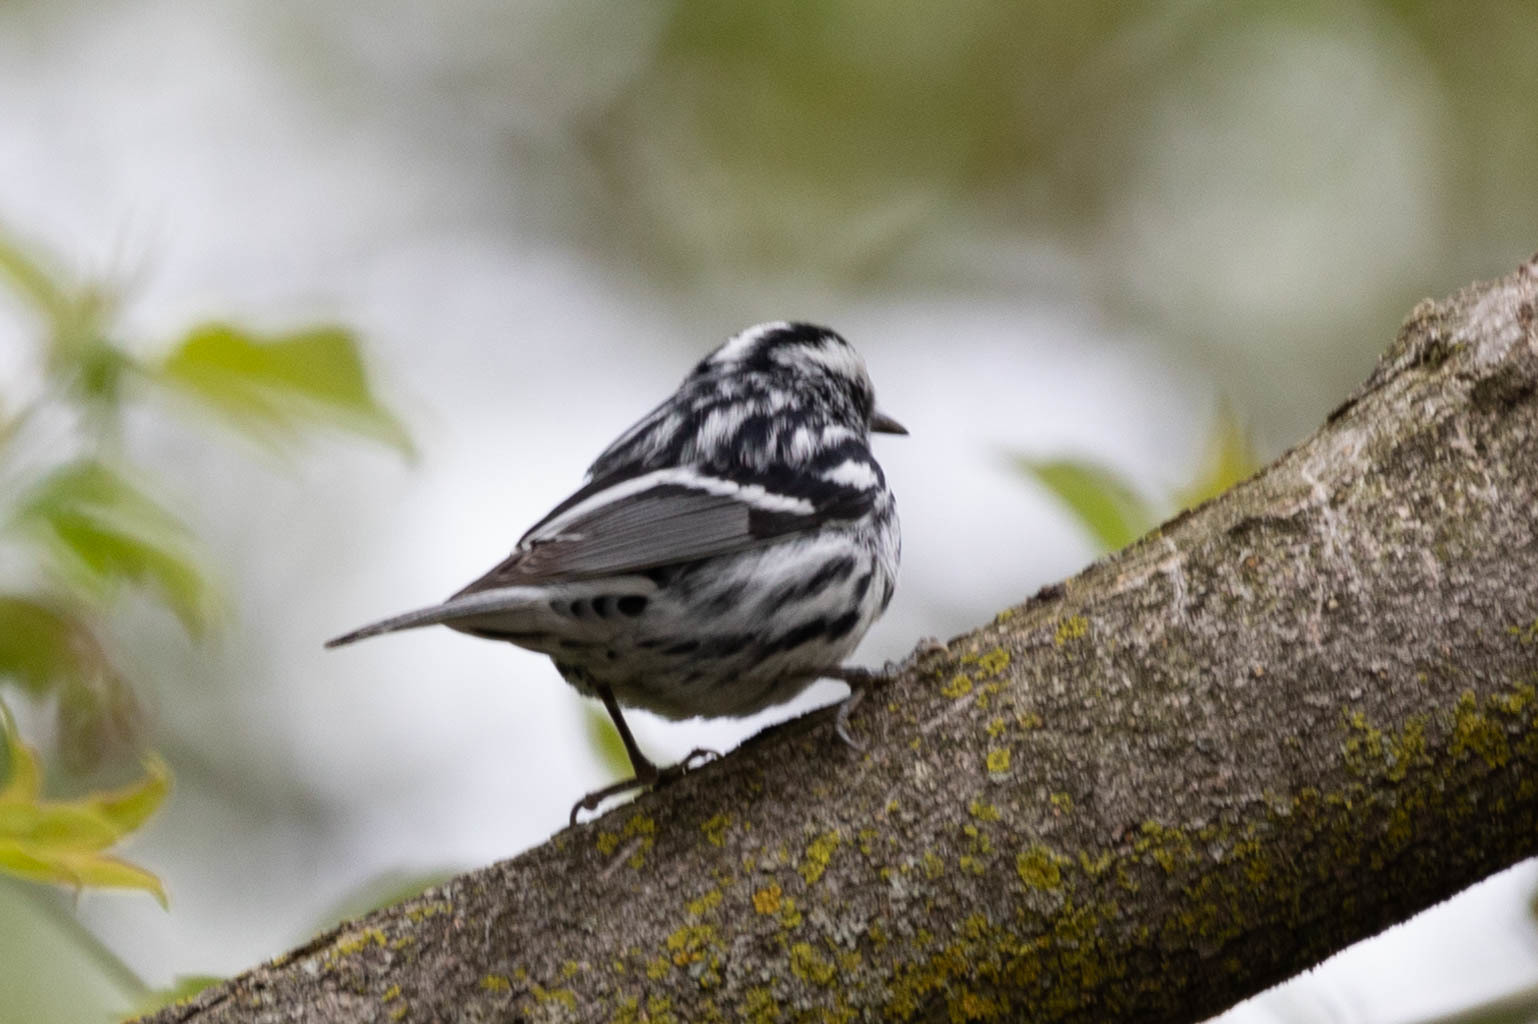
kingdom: Animalia
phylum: Chordata
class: Aves
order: Passeriformes
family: Parulidae
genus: Mniotilta
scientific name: Mniotilta varia
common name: Black-and-white warbler
